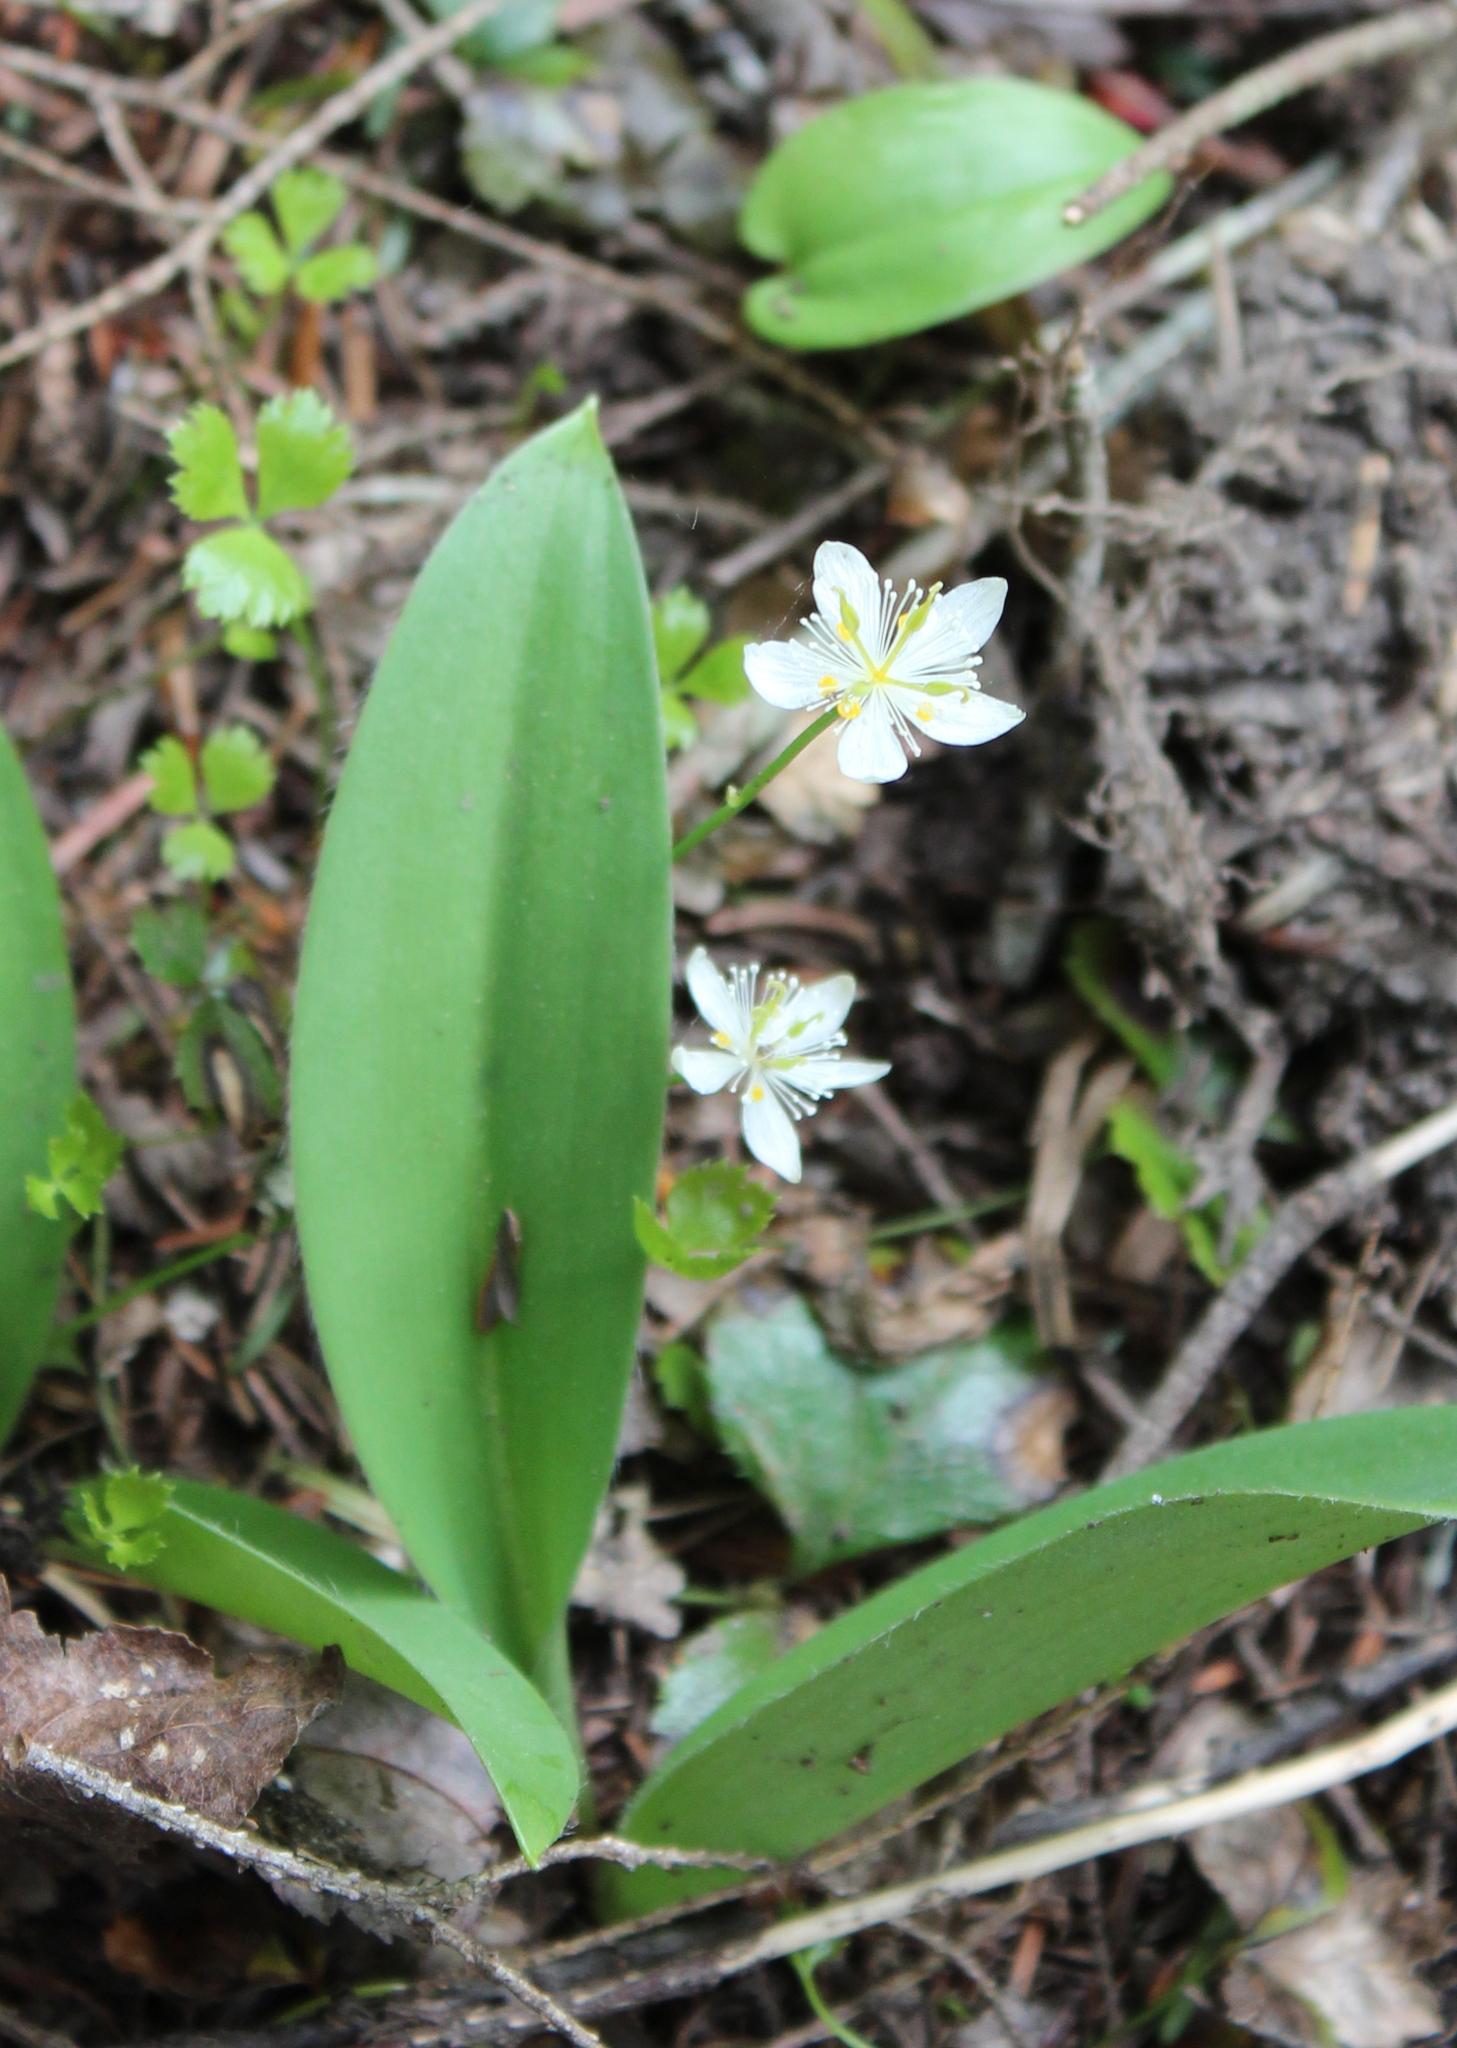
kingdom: Plantae
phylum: Tracheophyta
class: Magnoliopsida
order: Ranunculales
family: Ranunculaceae
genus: Coptis
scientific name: Coptis trifolia
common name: Canker-root
